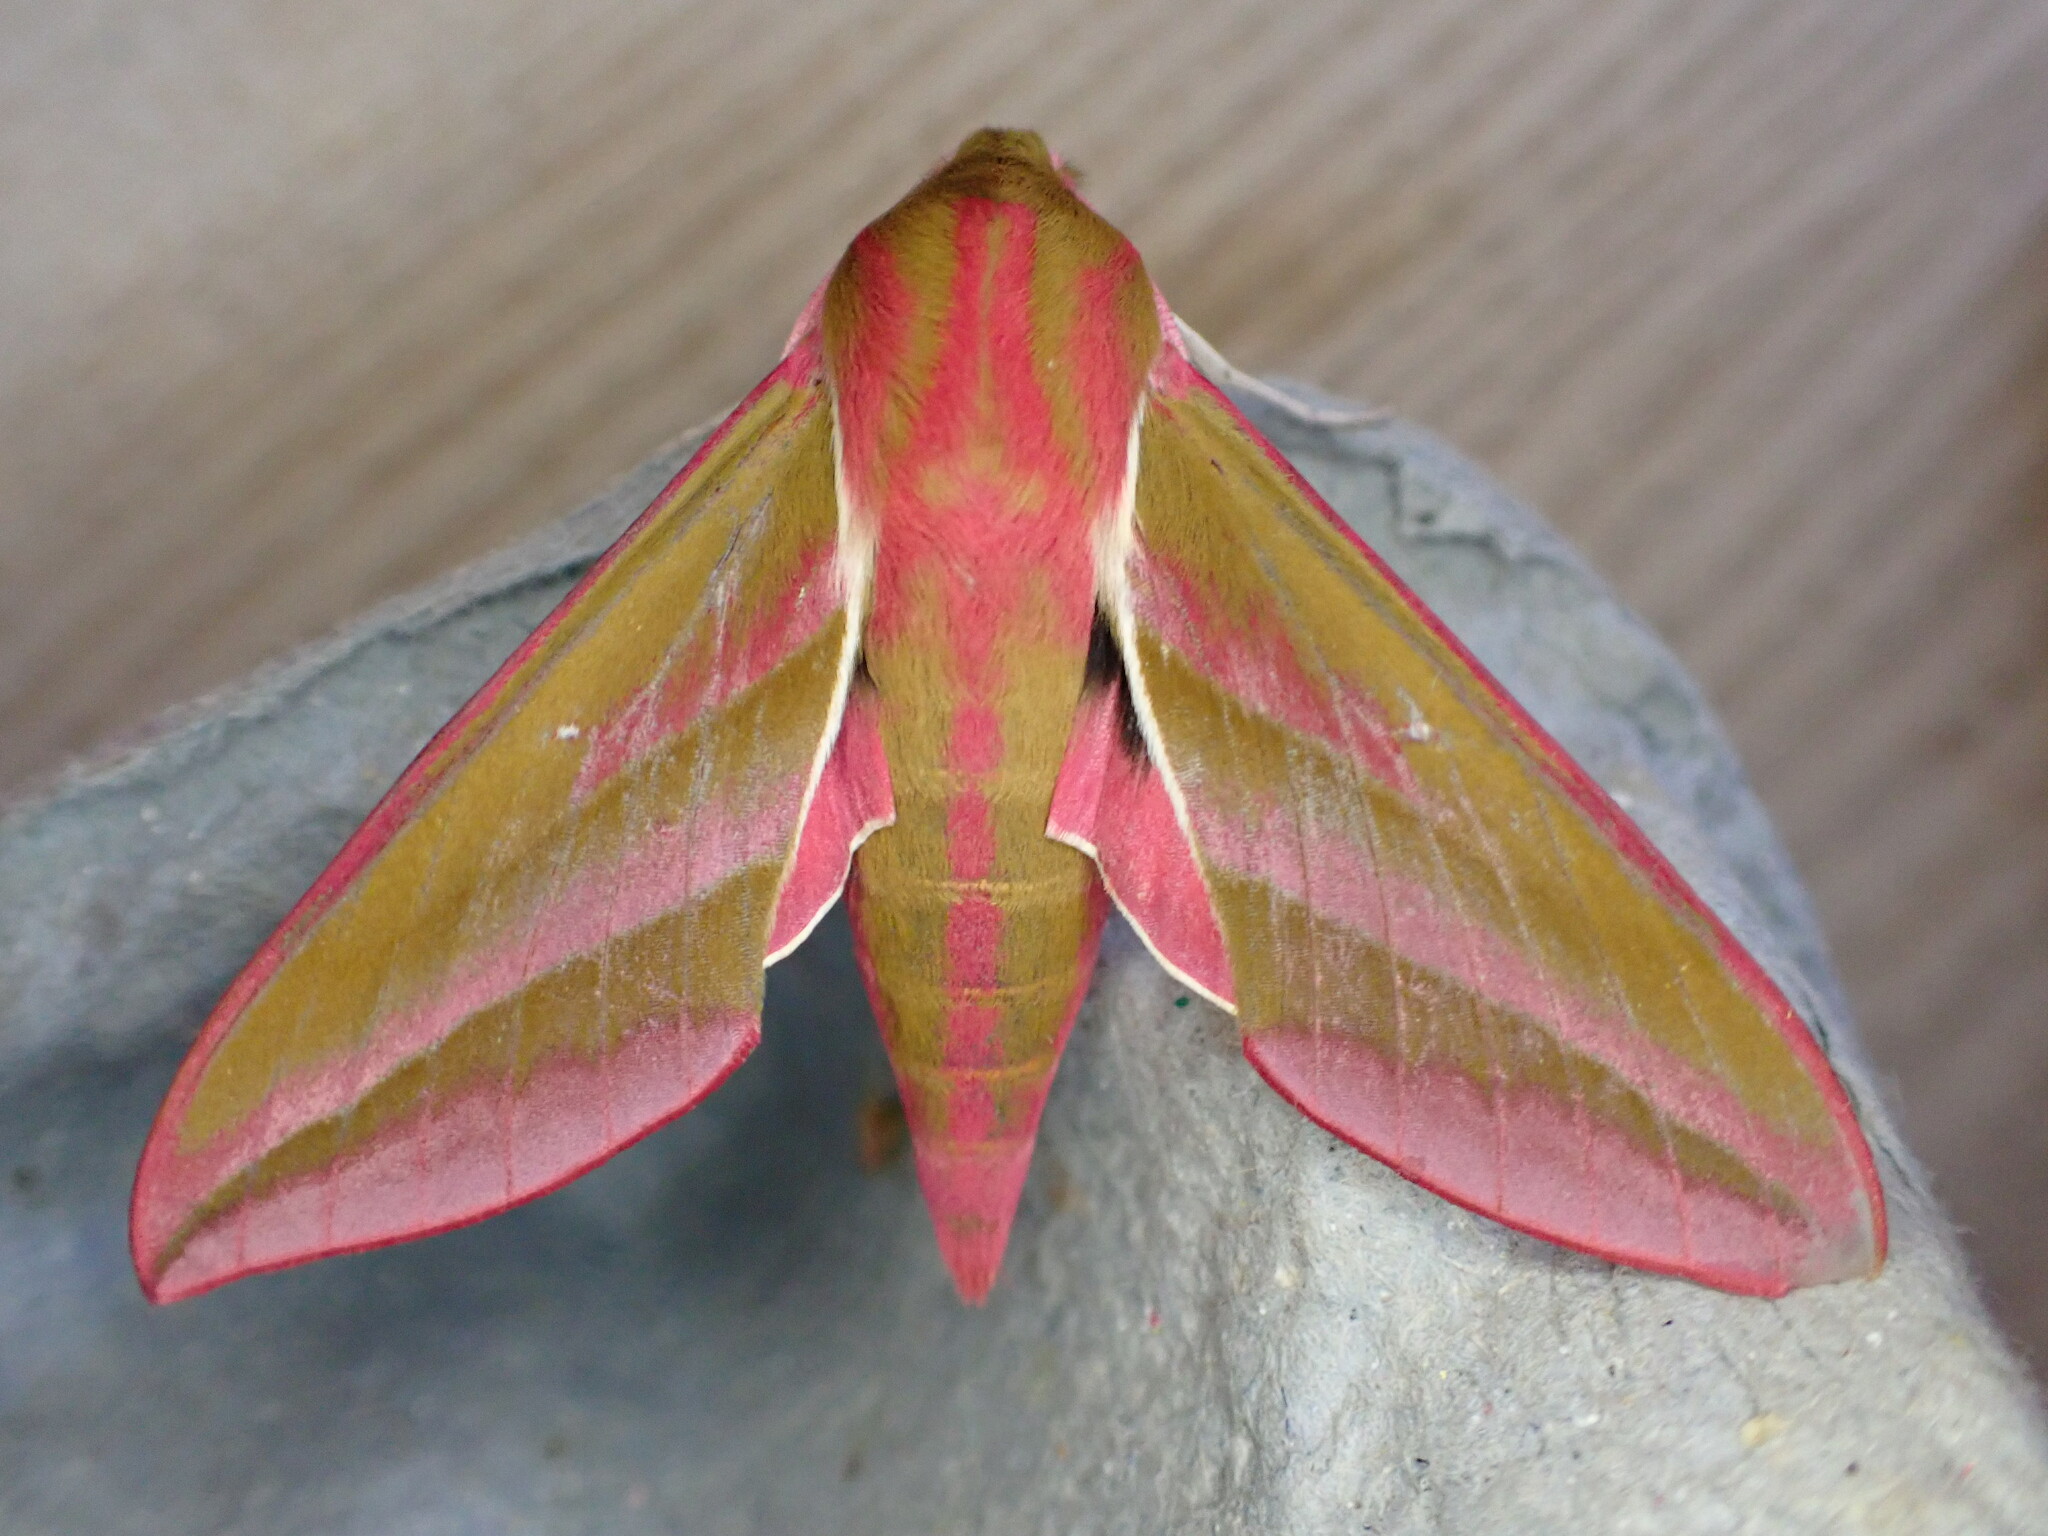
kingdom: Animalia
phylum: Arthropoda
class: Insecta
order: Lepidoptera
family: Sphingidae
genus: Deilephila
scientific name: Deilephila elpenor
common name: Elephant hawk-moth
